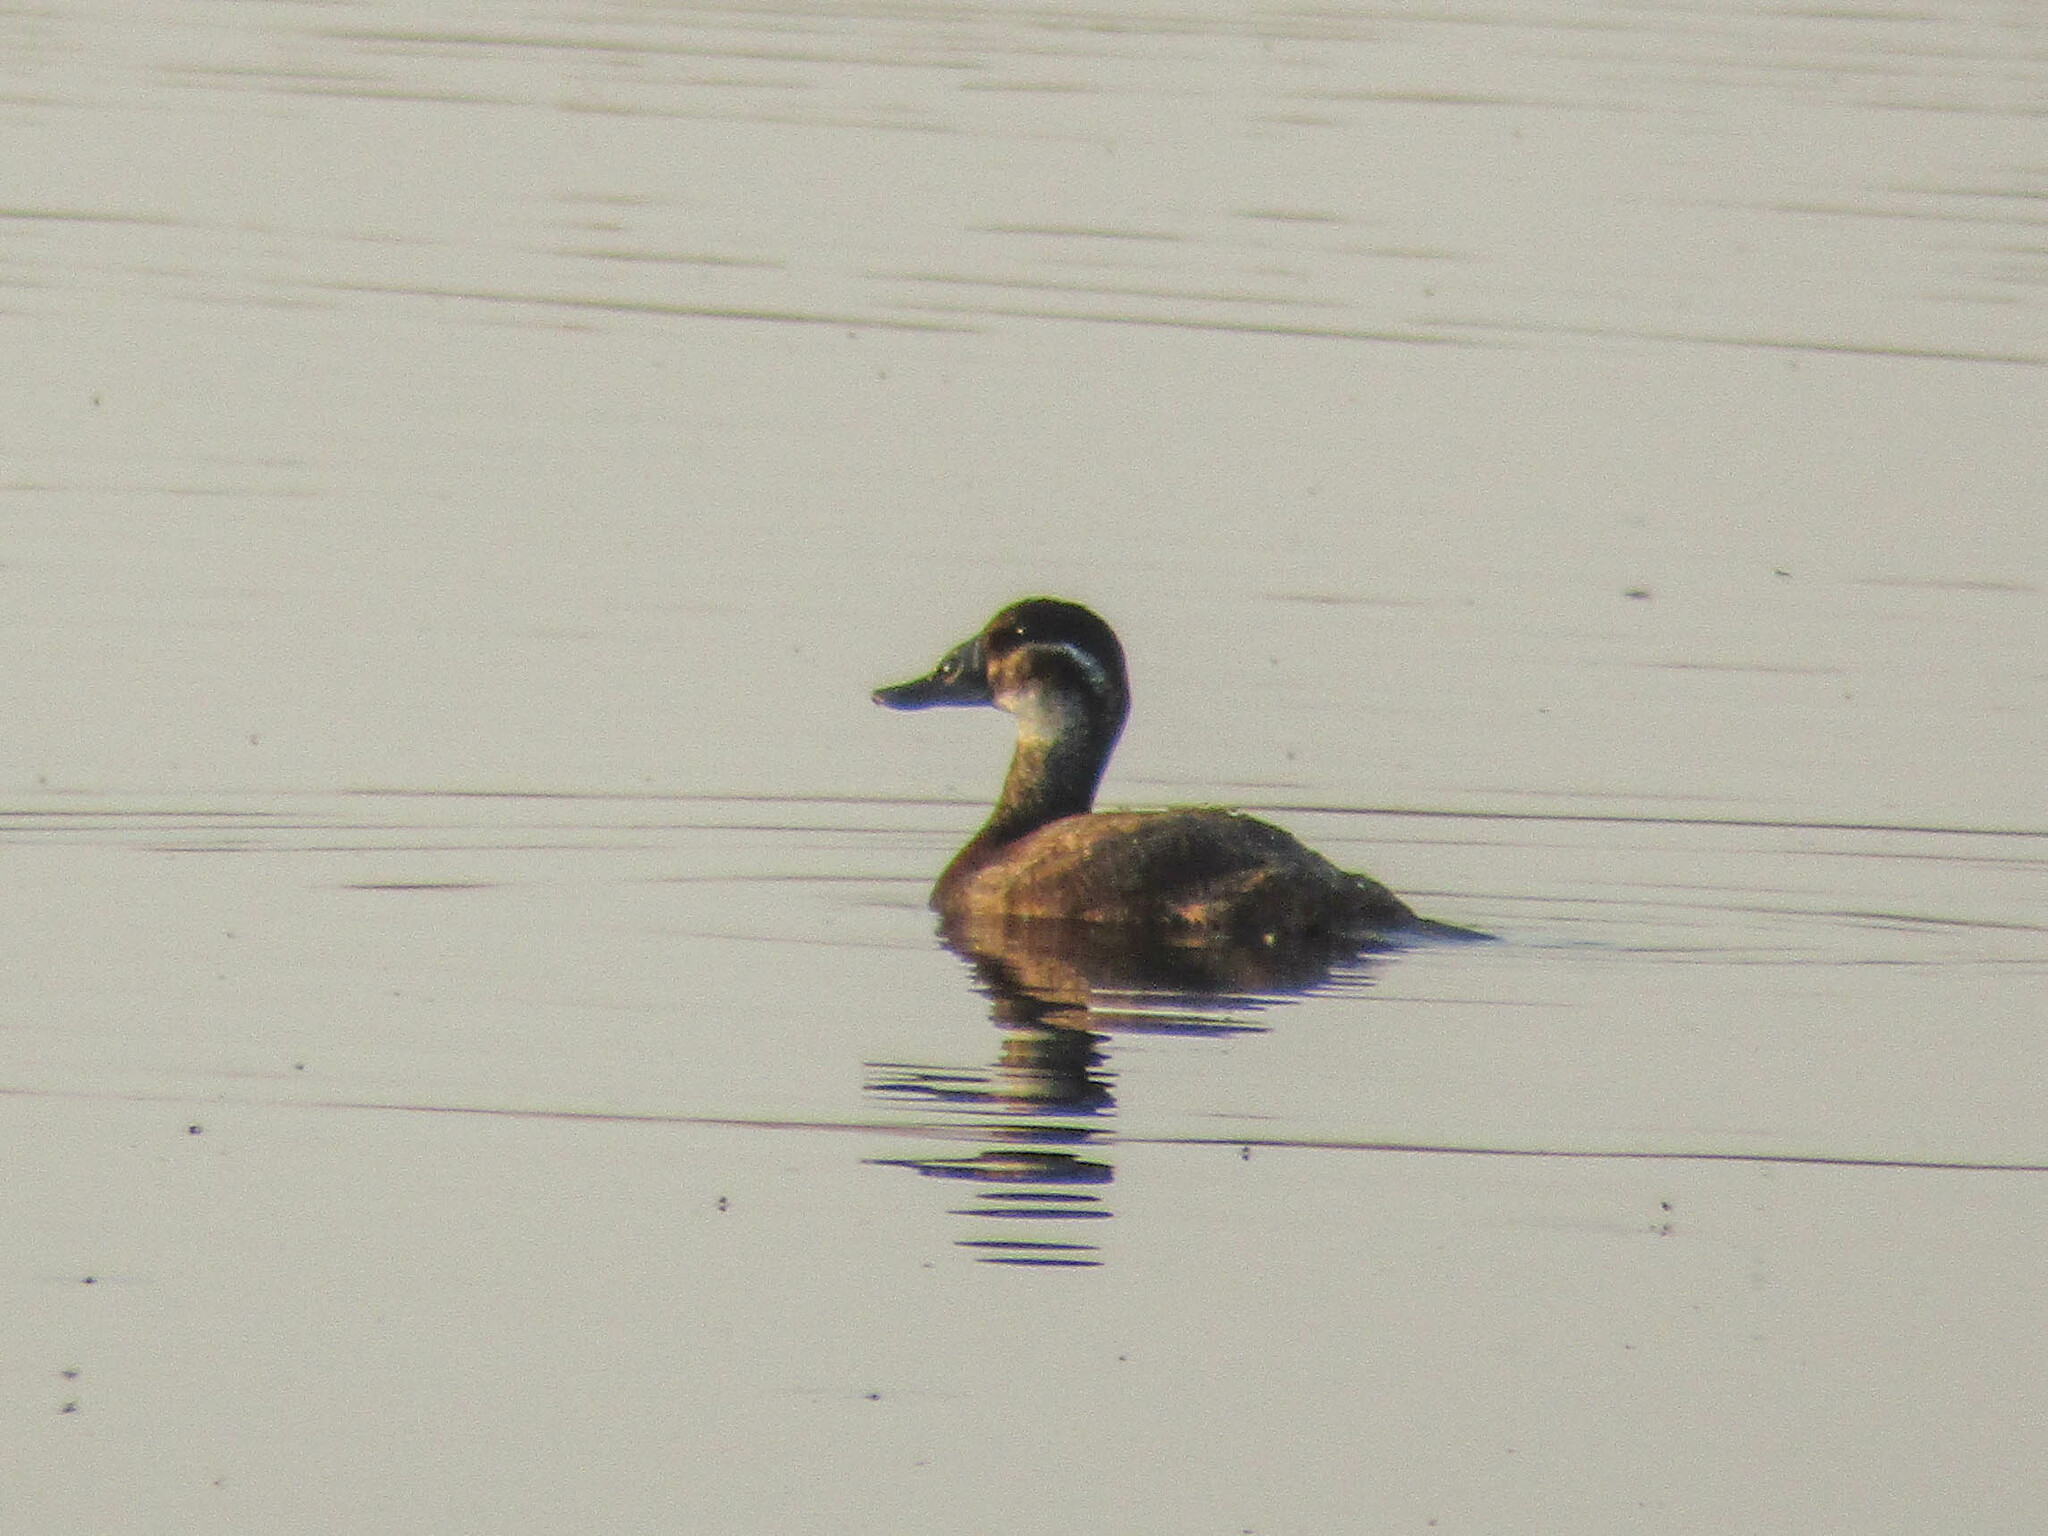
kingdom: Animalia
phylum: Chordata
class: Aves
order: Anseriformes
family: Anatidae
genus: Oxyura
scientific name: Oxyura leucocephala
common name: White-headed duck
